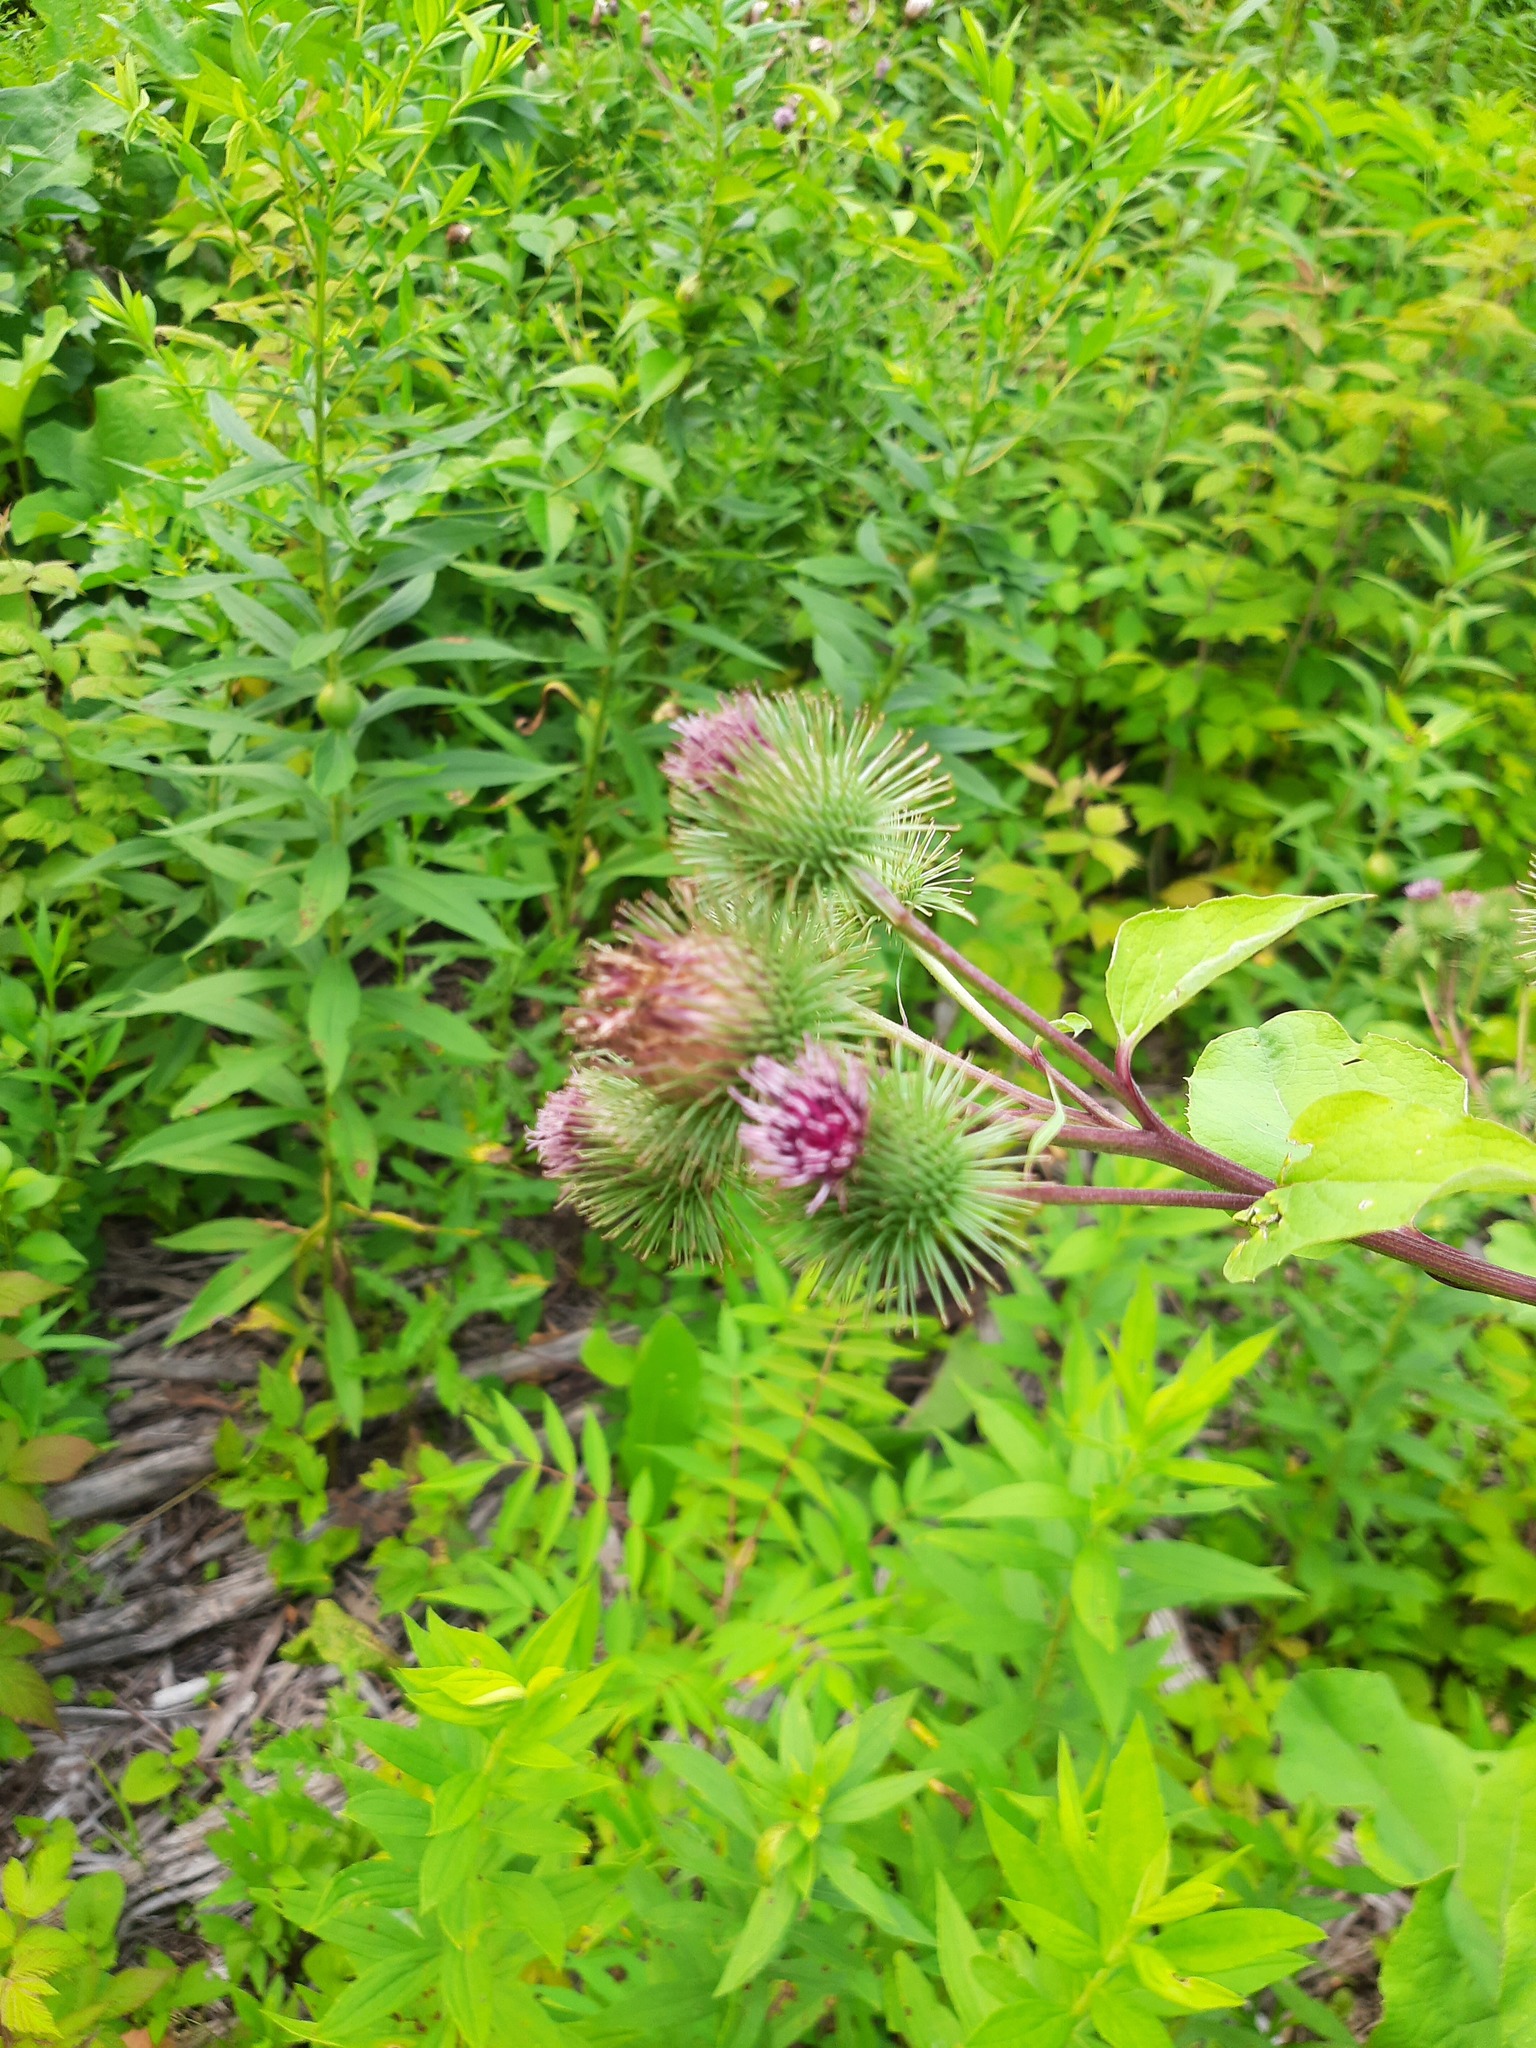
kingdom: Plantae
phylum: Tracheophyta
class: Magnoliopsida
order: Asterales
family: Asteraceae
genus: Arctium
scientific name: Arctium lappa
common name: Greater burdock
